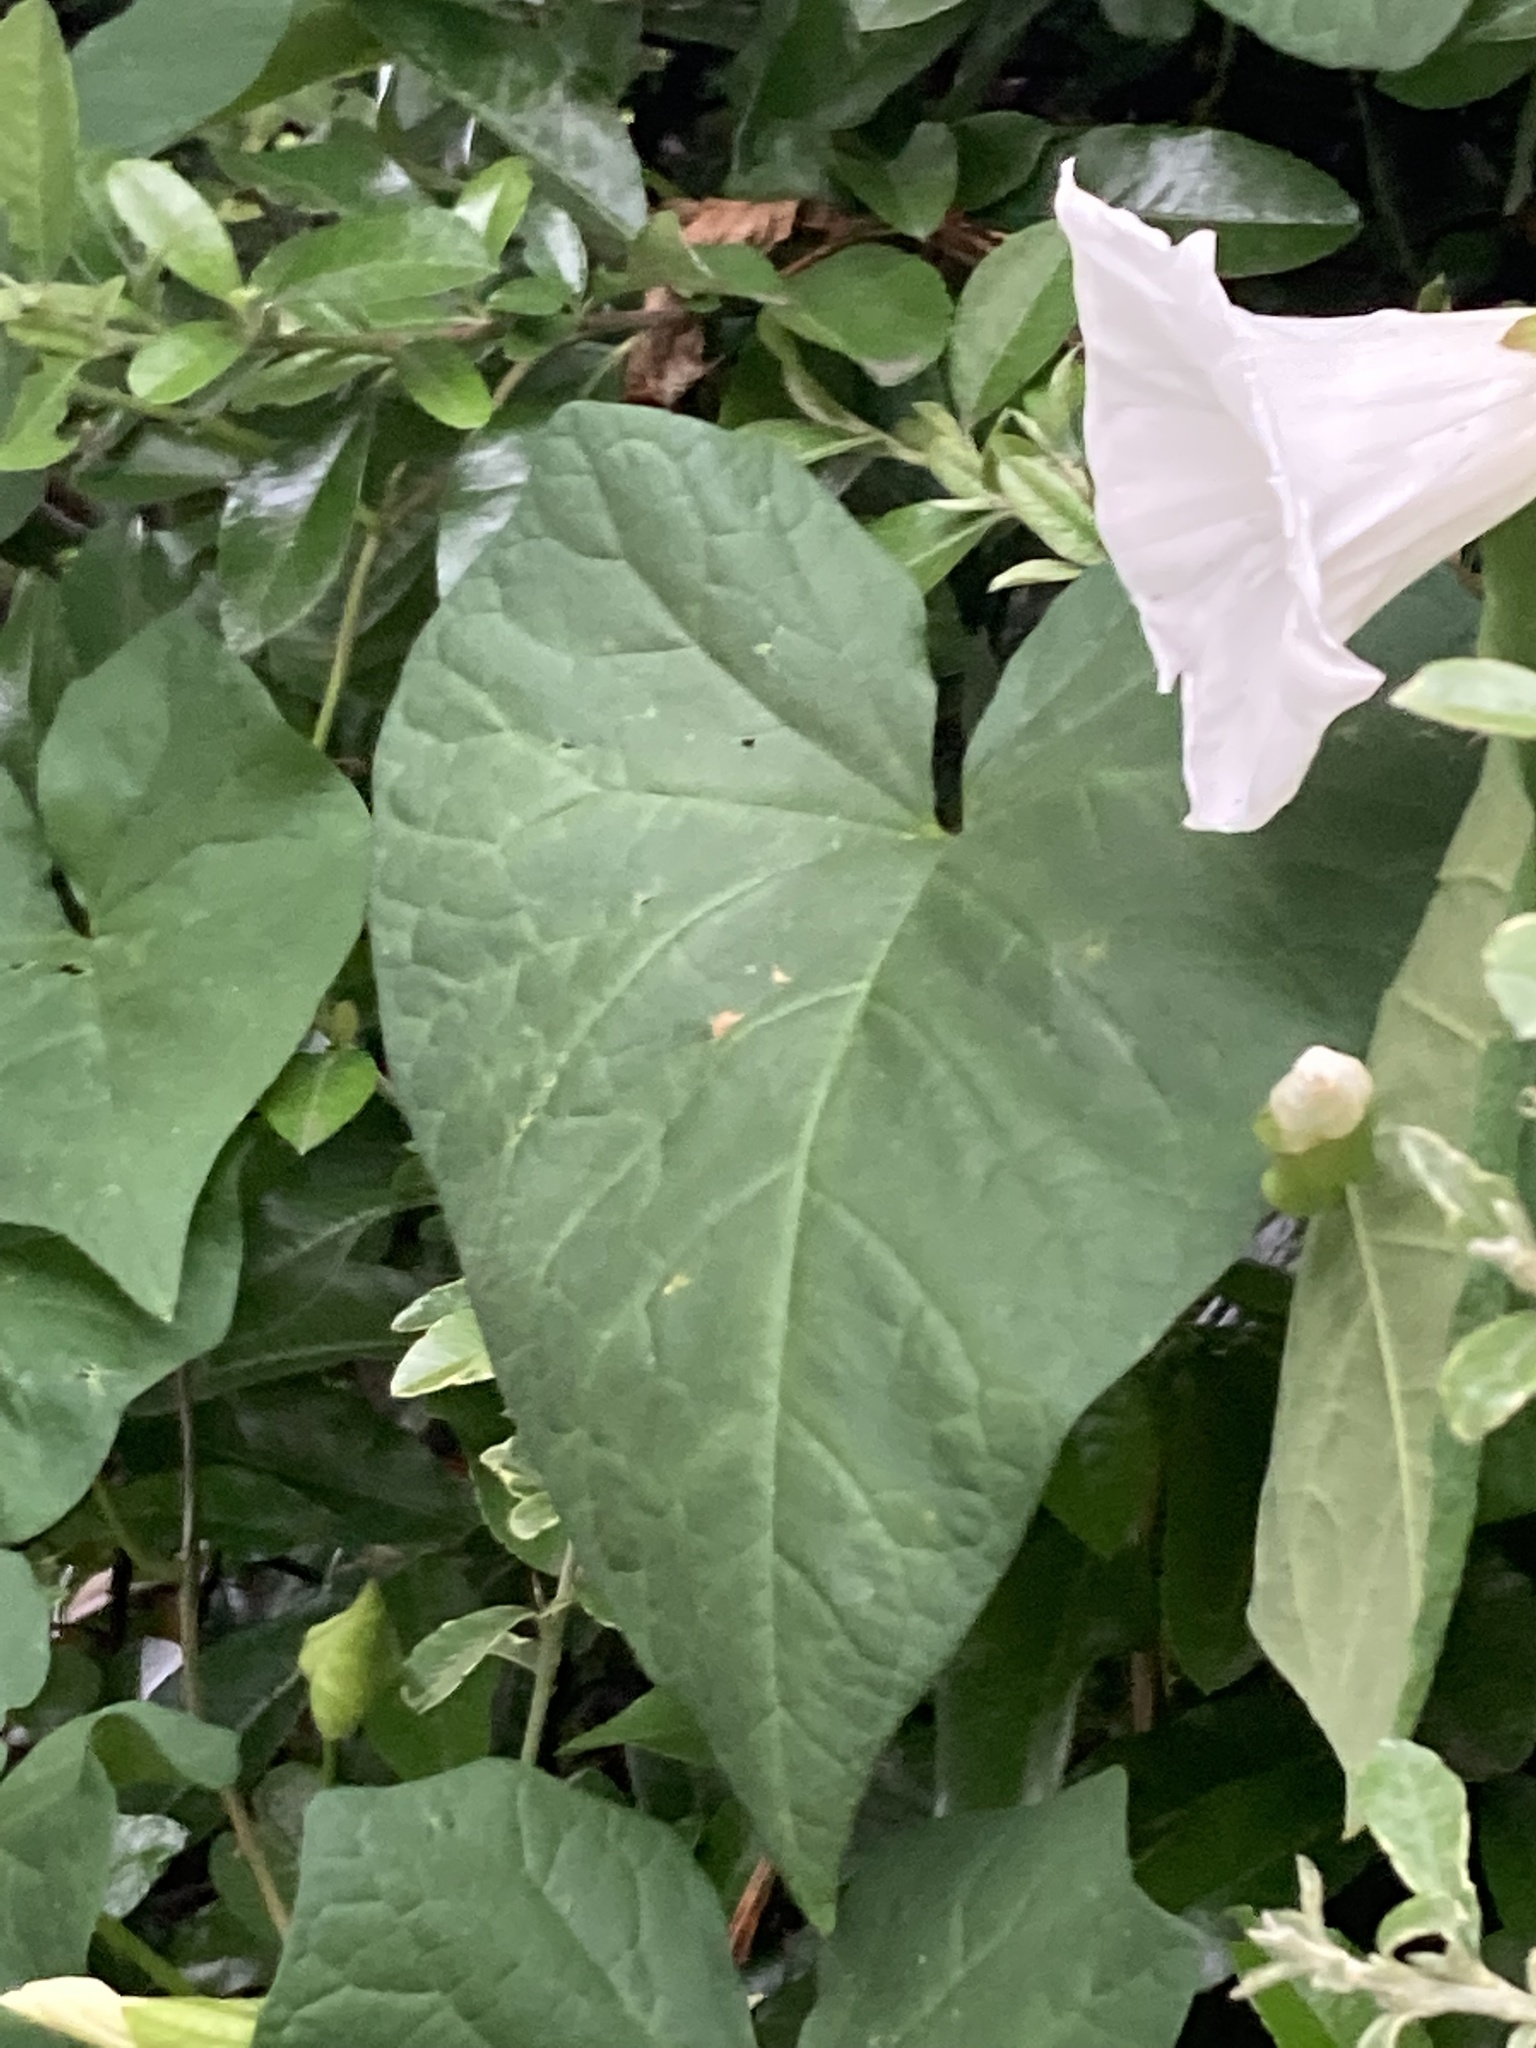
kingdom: Plantae
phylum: Tracheophyta
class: Magnoliopsida
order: Solanales
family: Convolvulaceae
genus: Calystegia
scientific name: Calystegia silvatica
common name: Large bindweed
